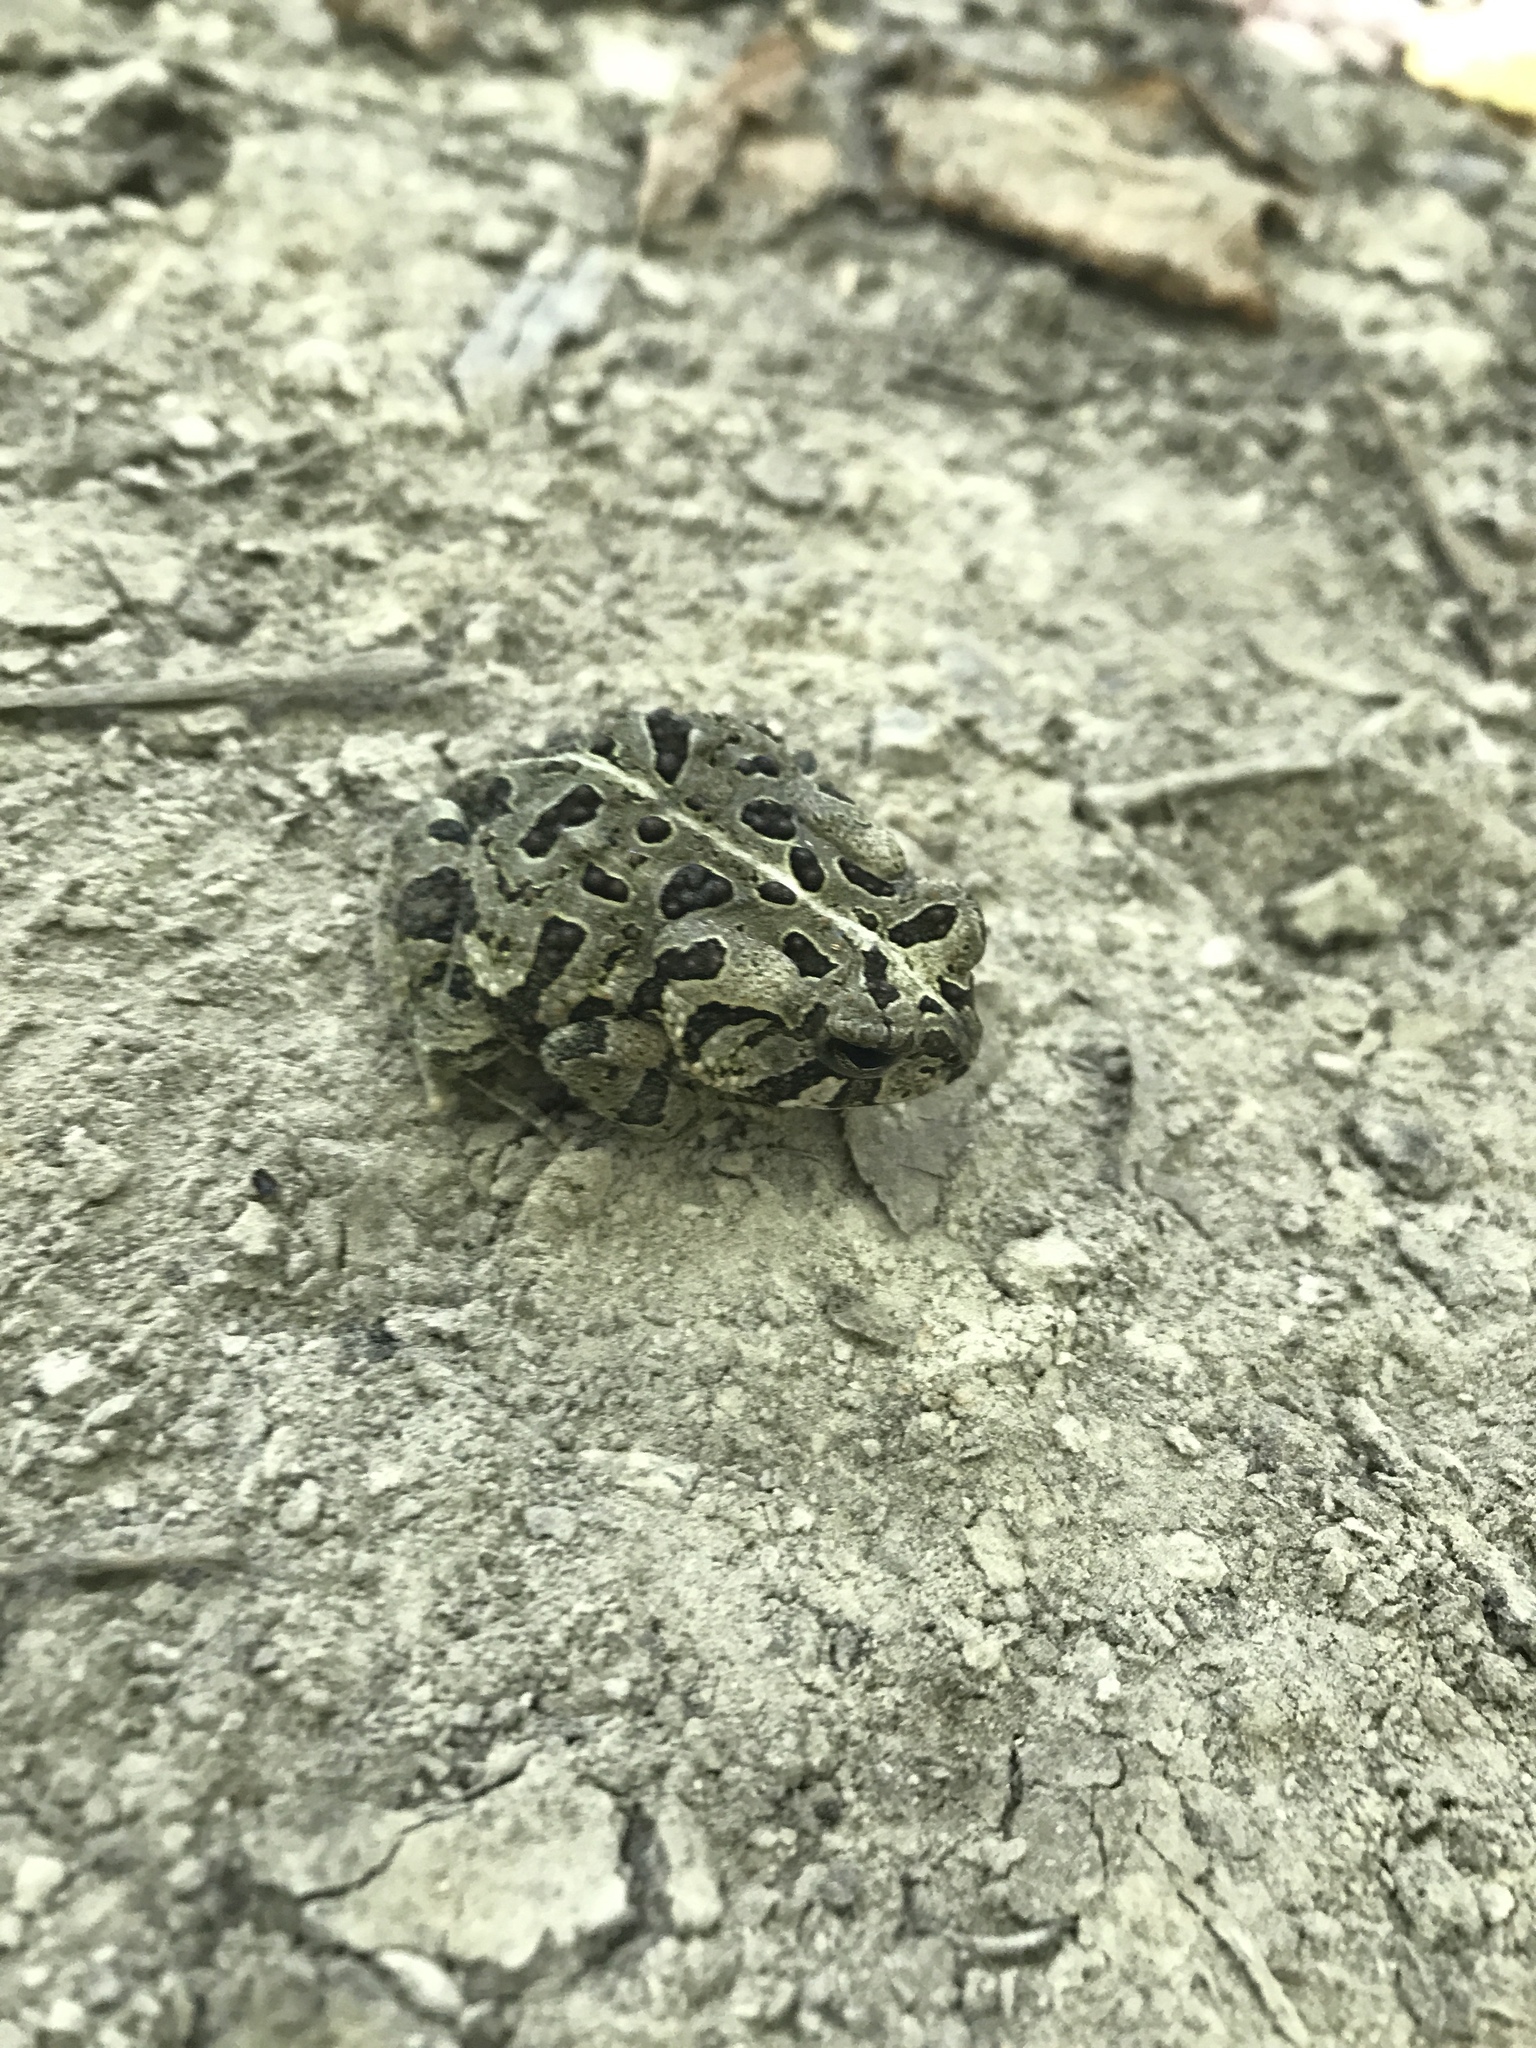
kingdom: Animalia
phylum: Chordata
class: Amphibia
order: Anura
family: Bufonidae
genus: Anaxyrus
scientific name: Anaxyrus fowleri
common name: Fowler's toad
